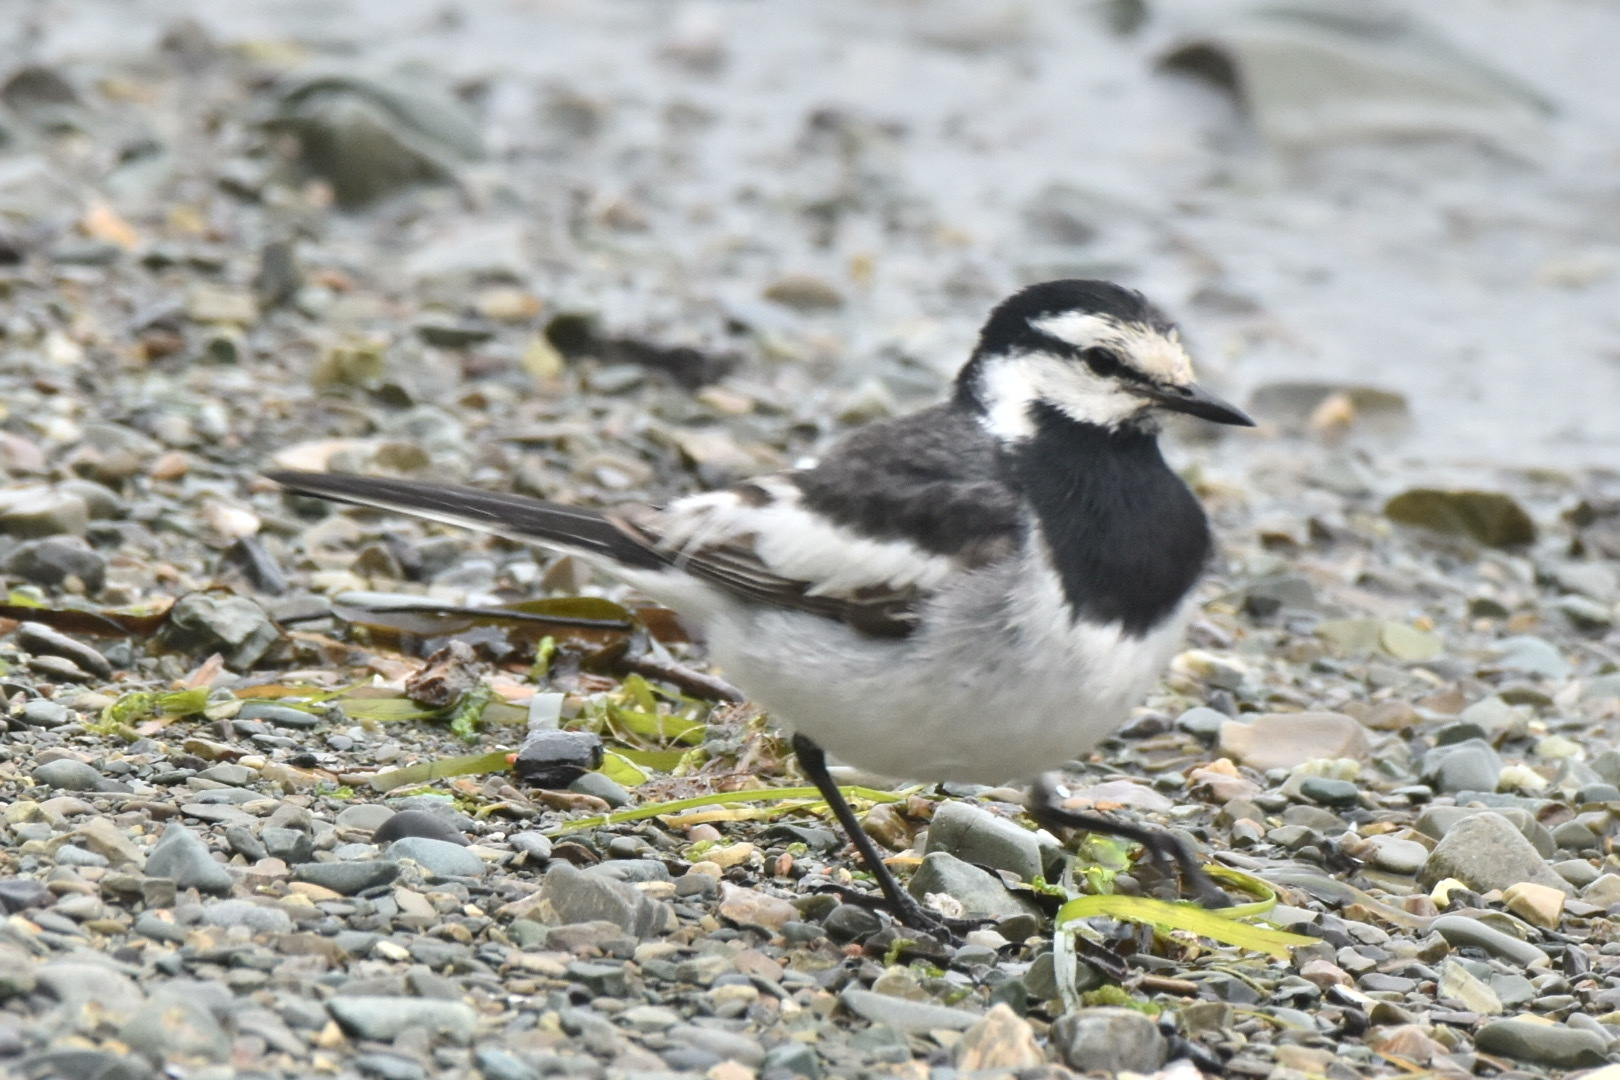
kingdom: Animalia
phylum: Chordata
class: Aves
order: Passeriformes
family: Motacillidae
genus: Motacilla
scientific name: Motacilla alba
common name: White wagtail
